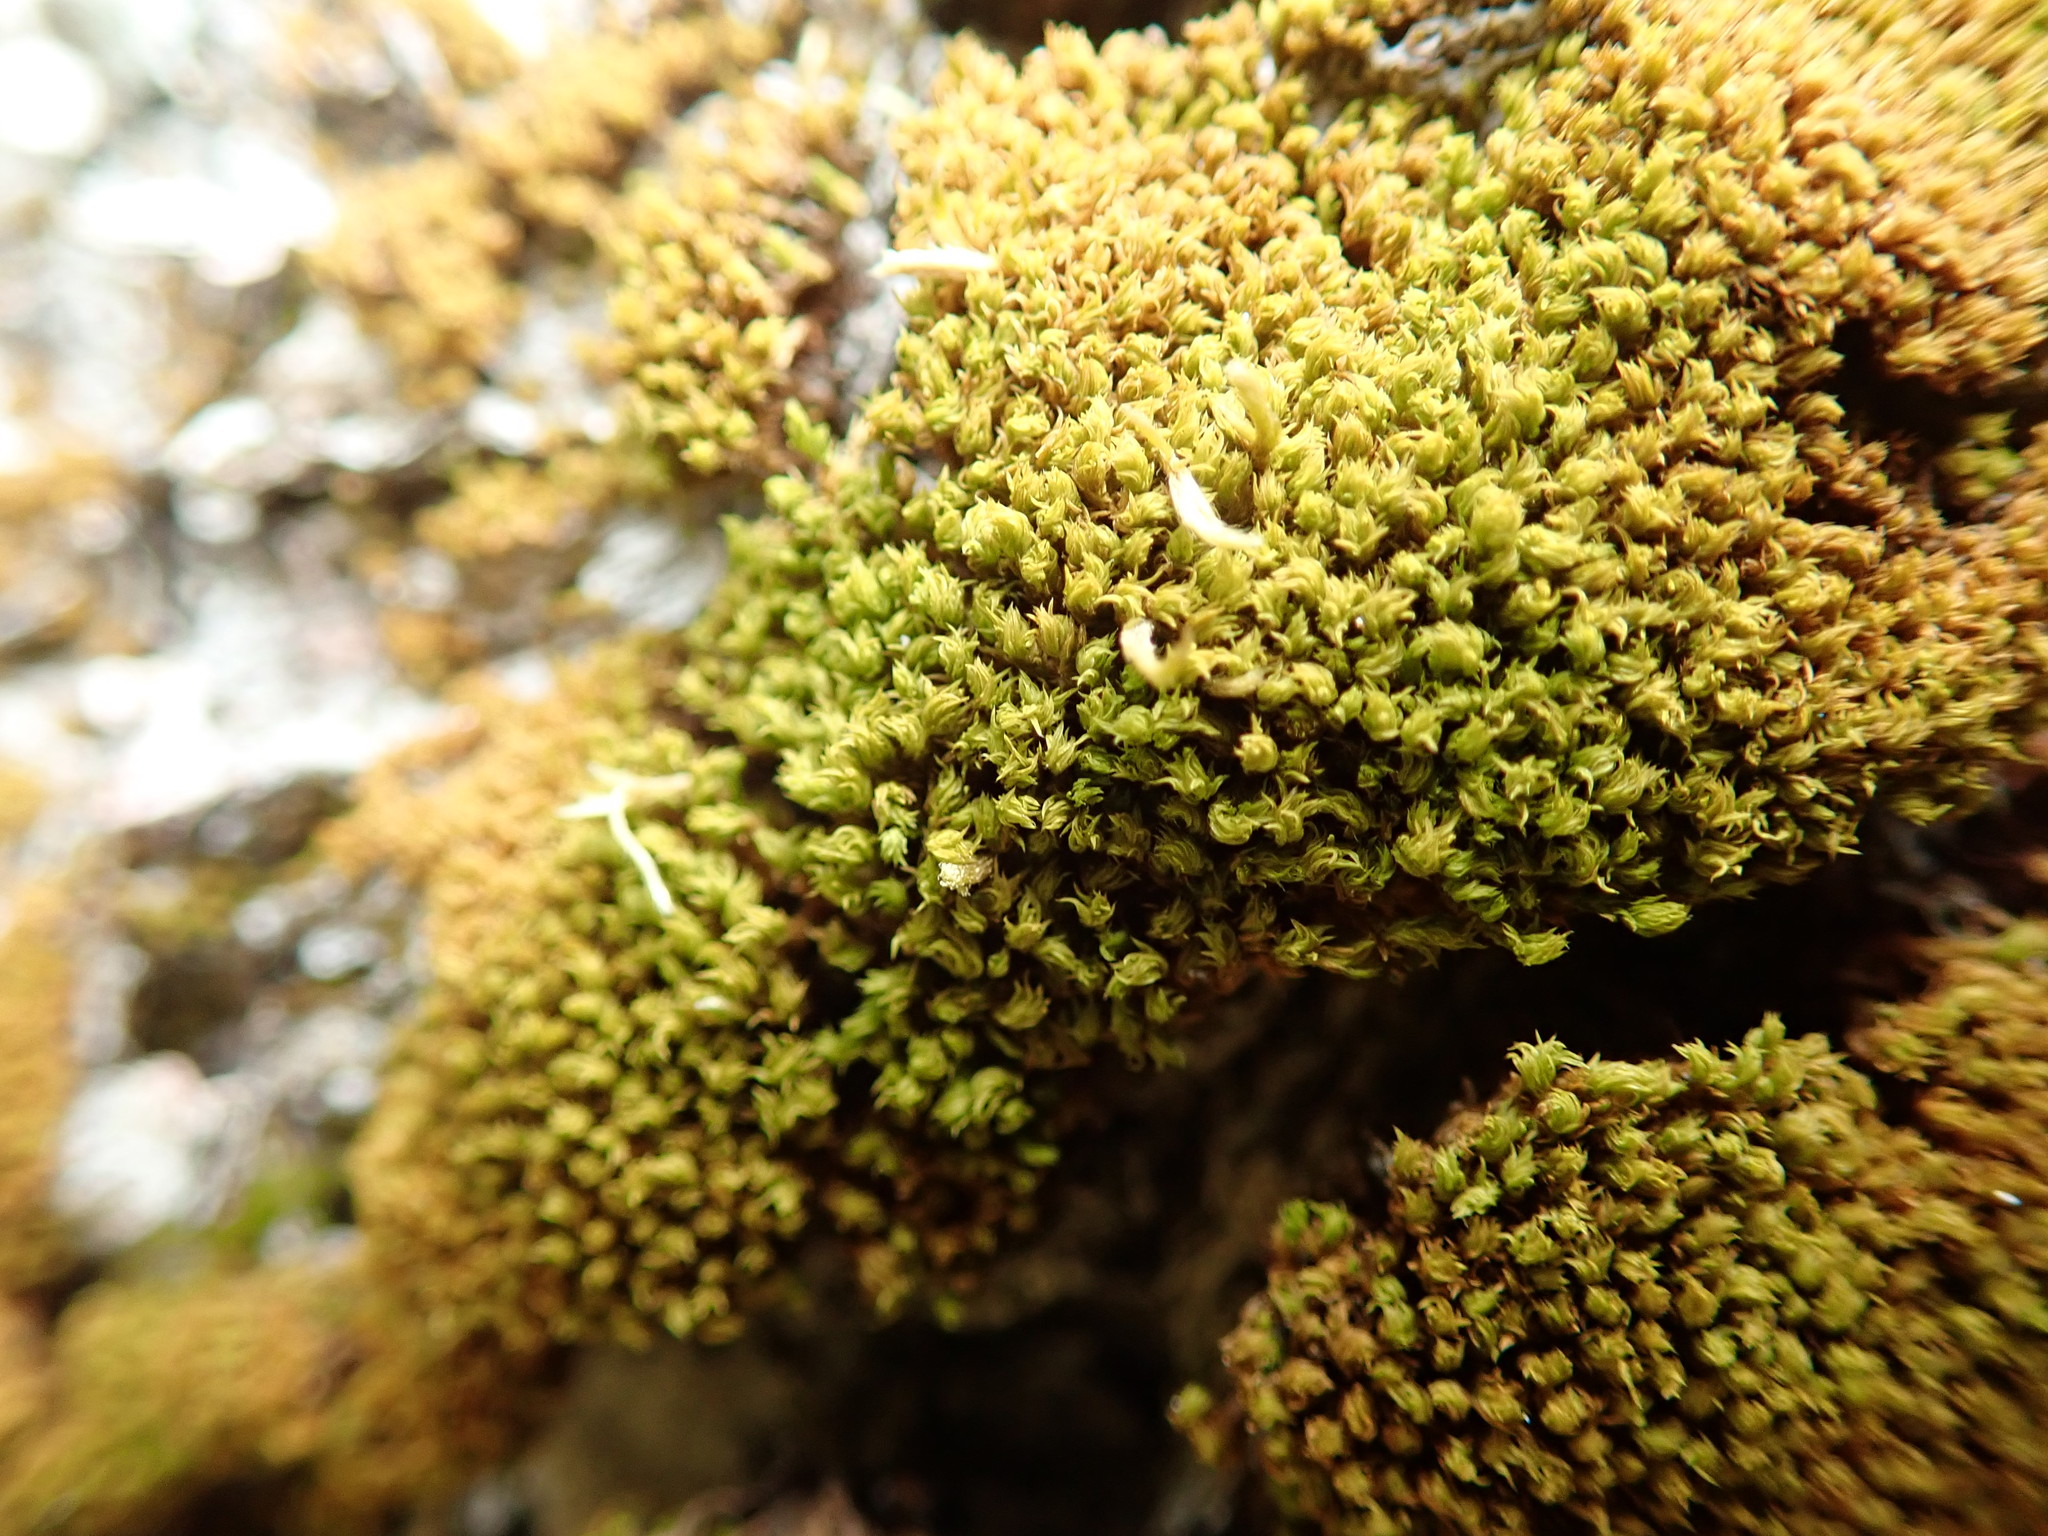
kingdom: Plantae
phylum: Bryophyta
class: Bryopsida
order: Orthotrichales
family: Orthotrichaceae
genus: Zygodon
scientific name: Zygodon rupestris
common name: Park yoke moss
